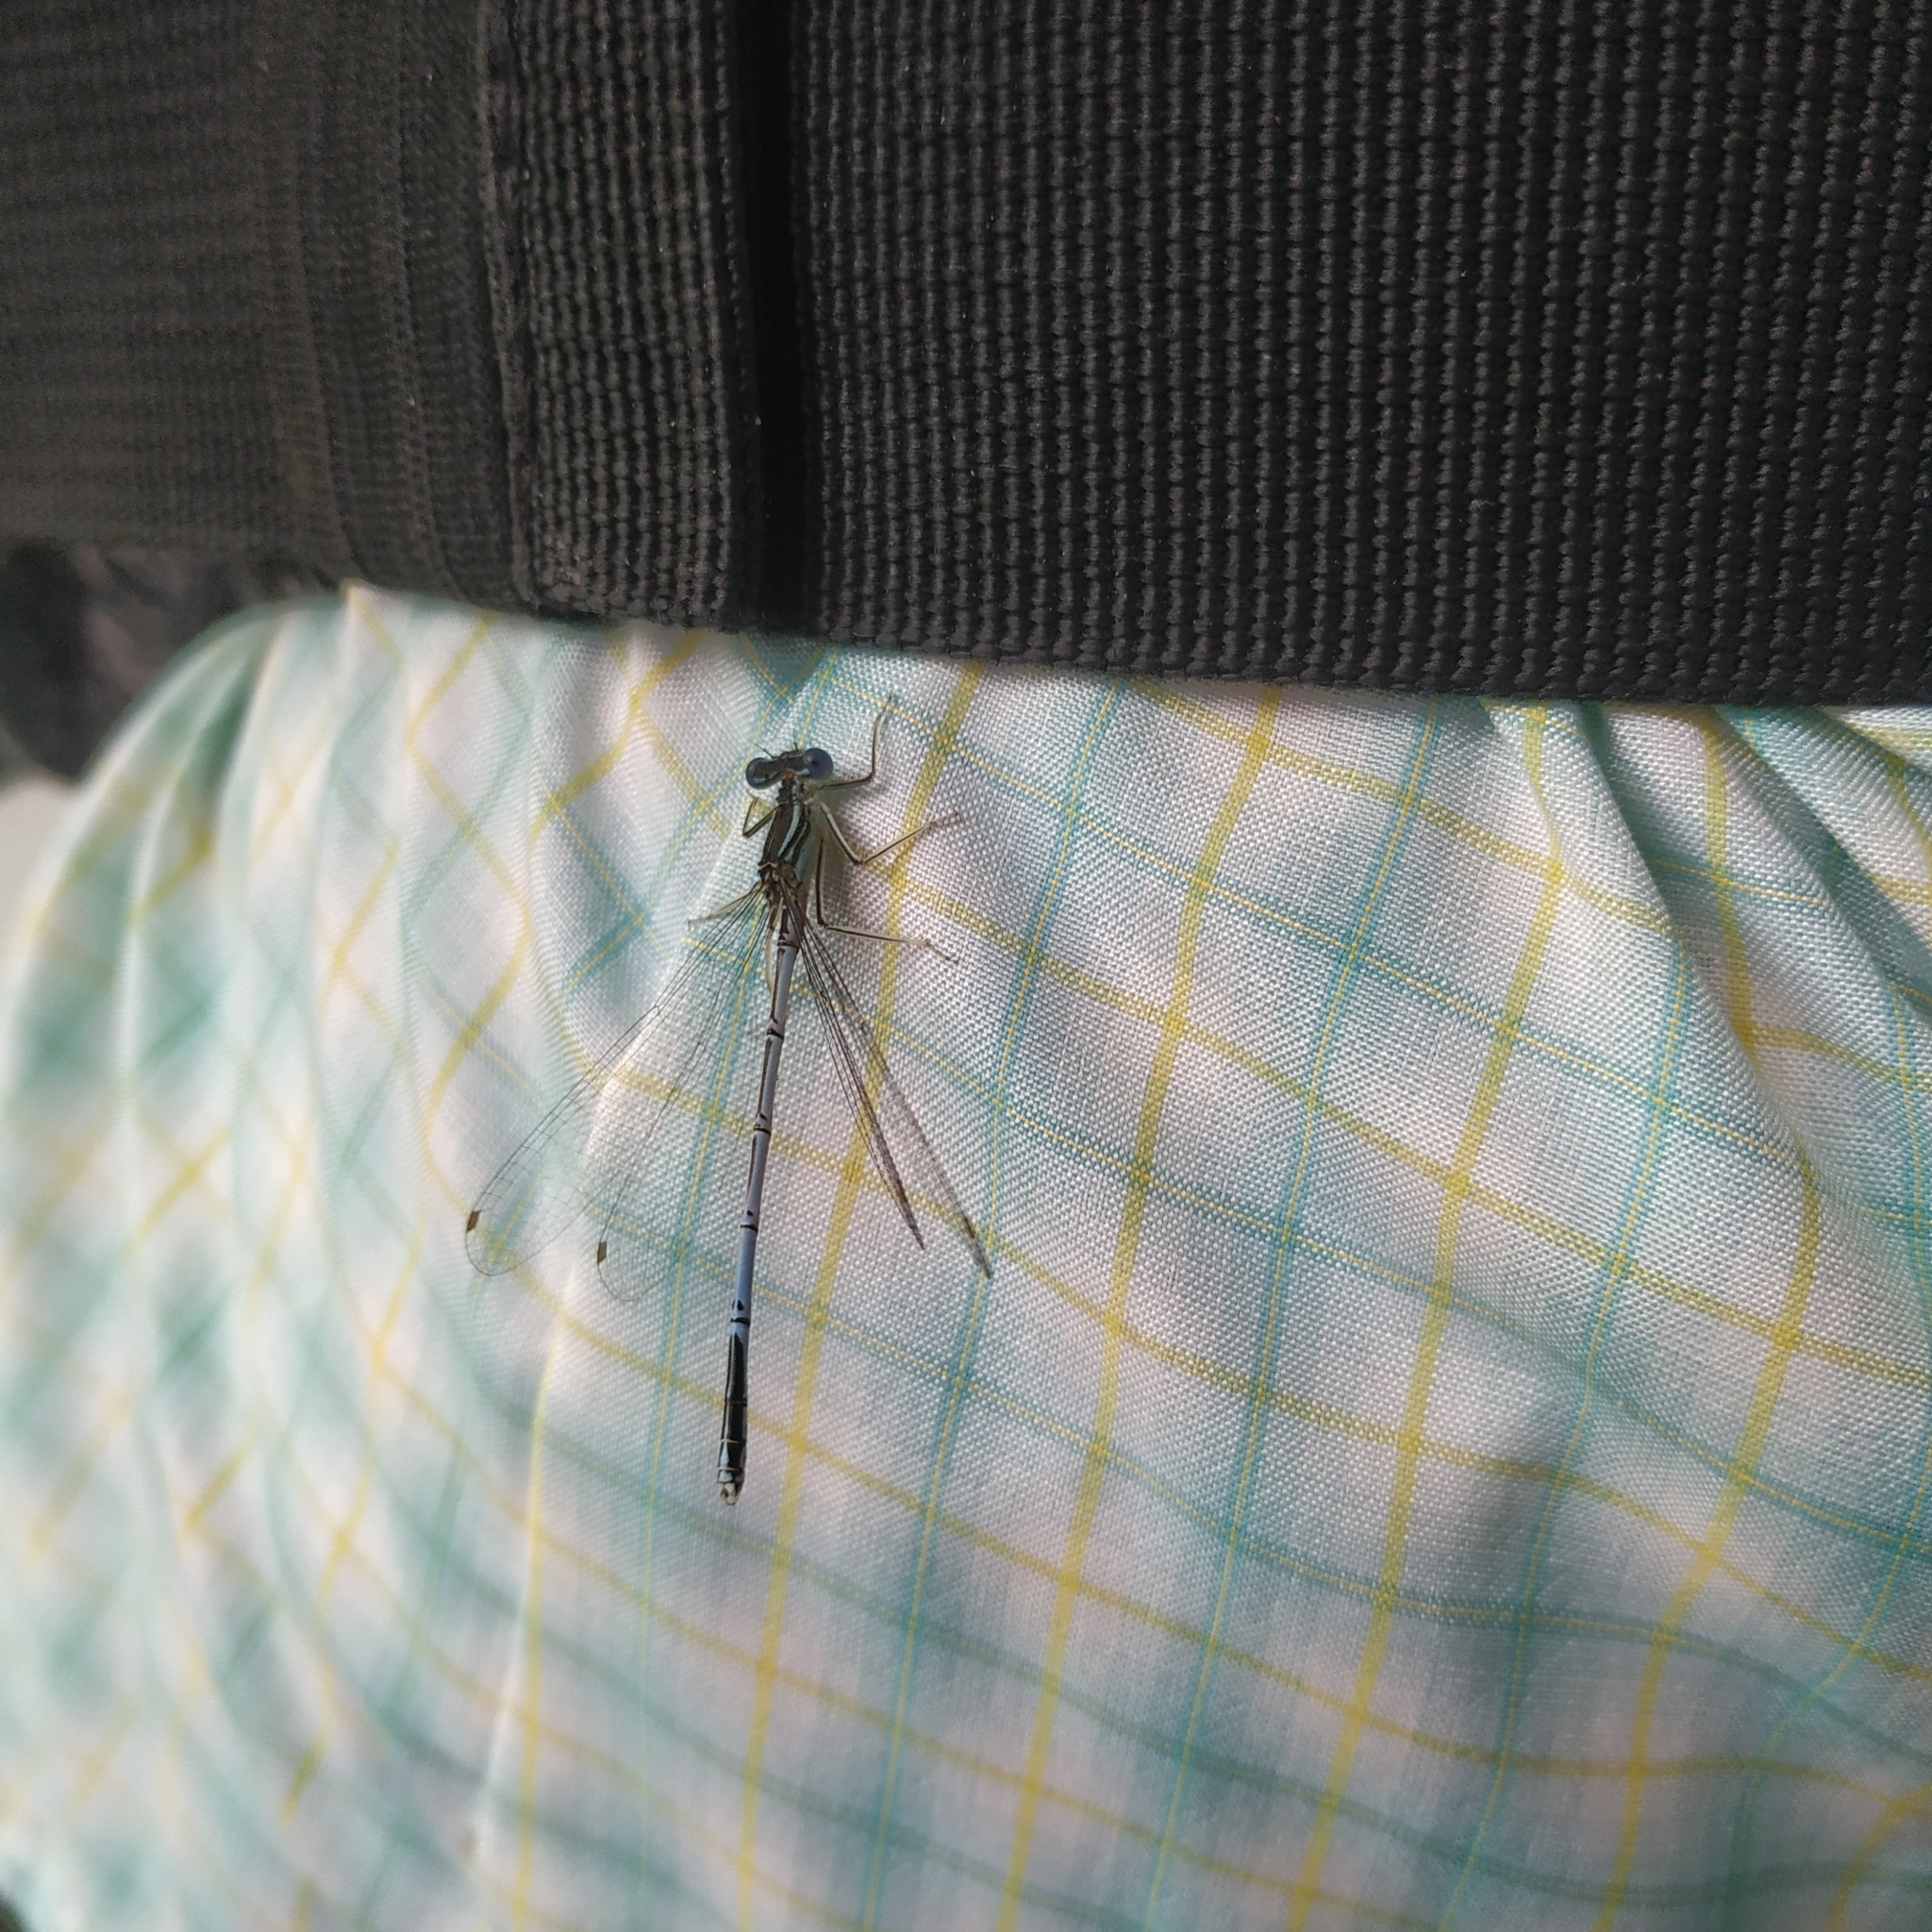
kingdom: Animalia
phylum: Arthropoda
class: Insecta
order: Odonata
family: Platycnemididae
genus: Platycnemis
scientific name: Platycnemis pennipes
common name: White-legged damselfly
